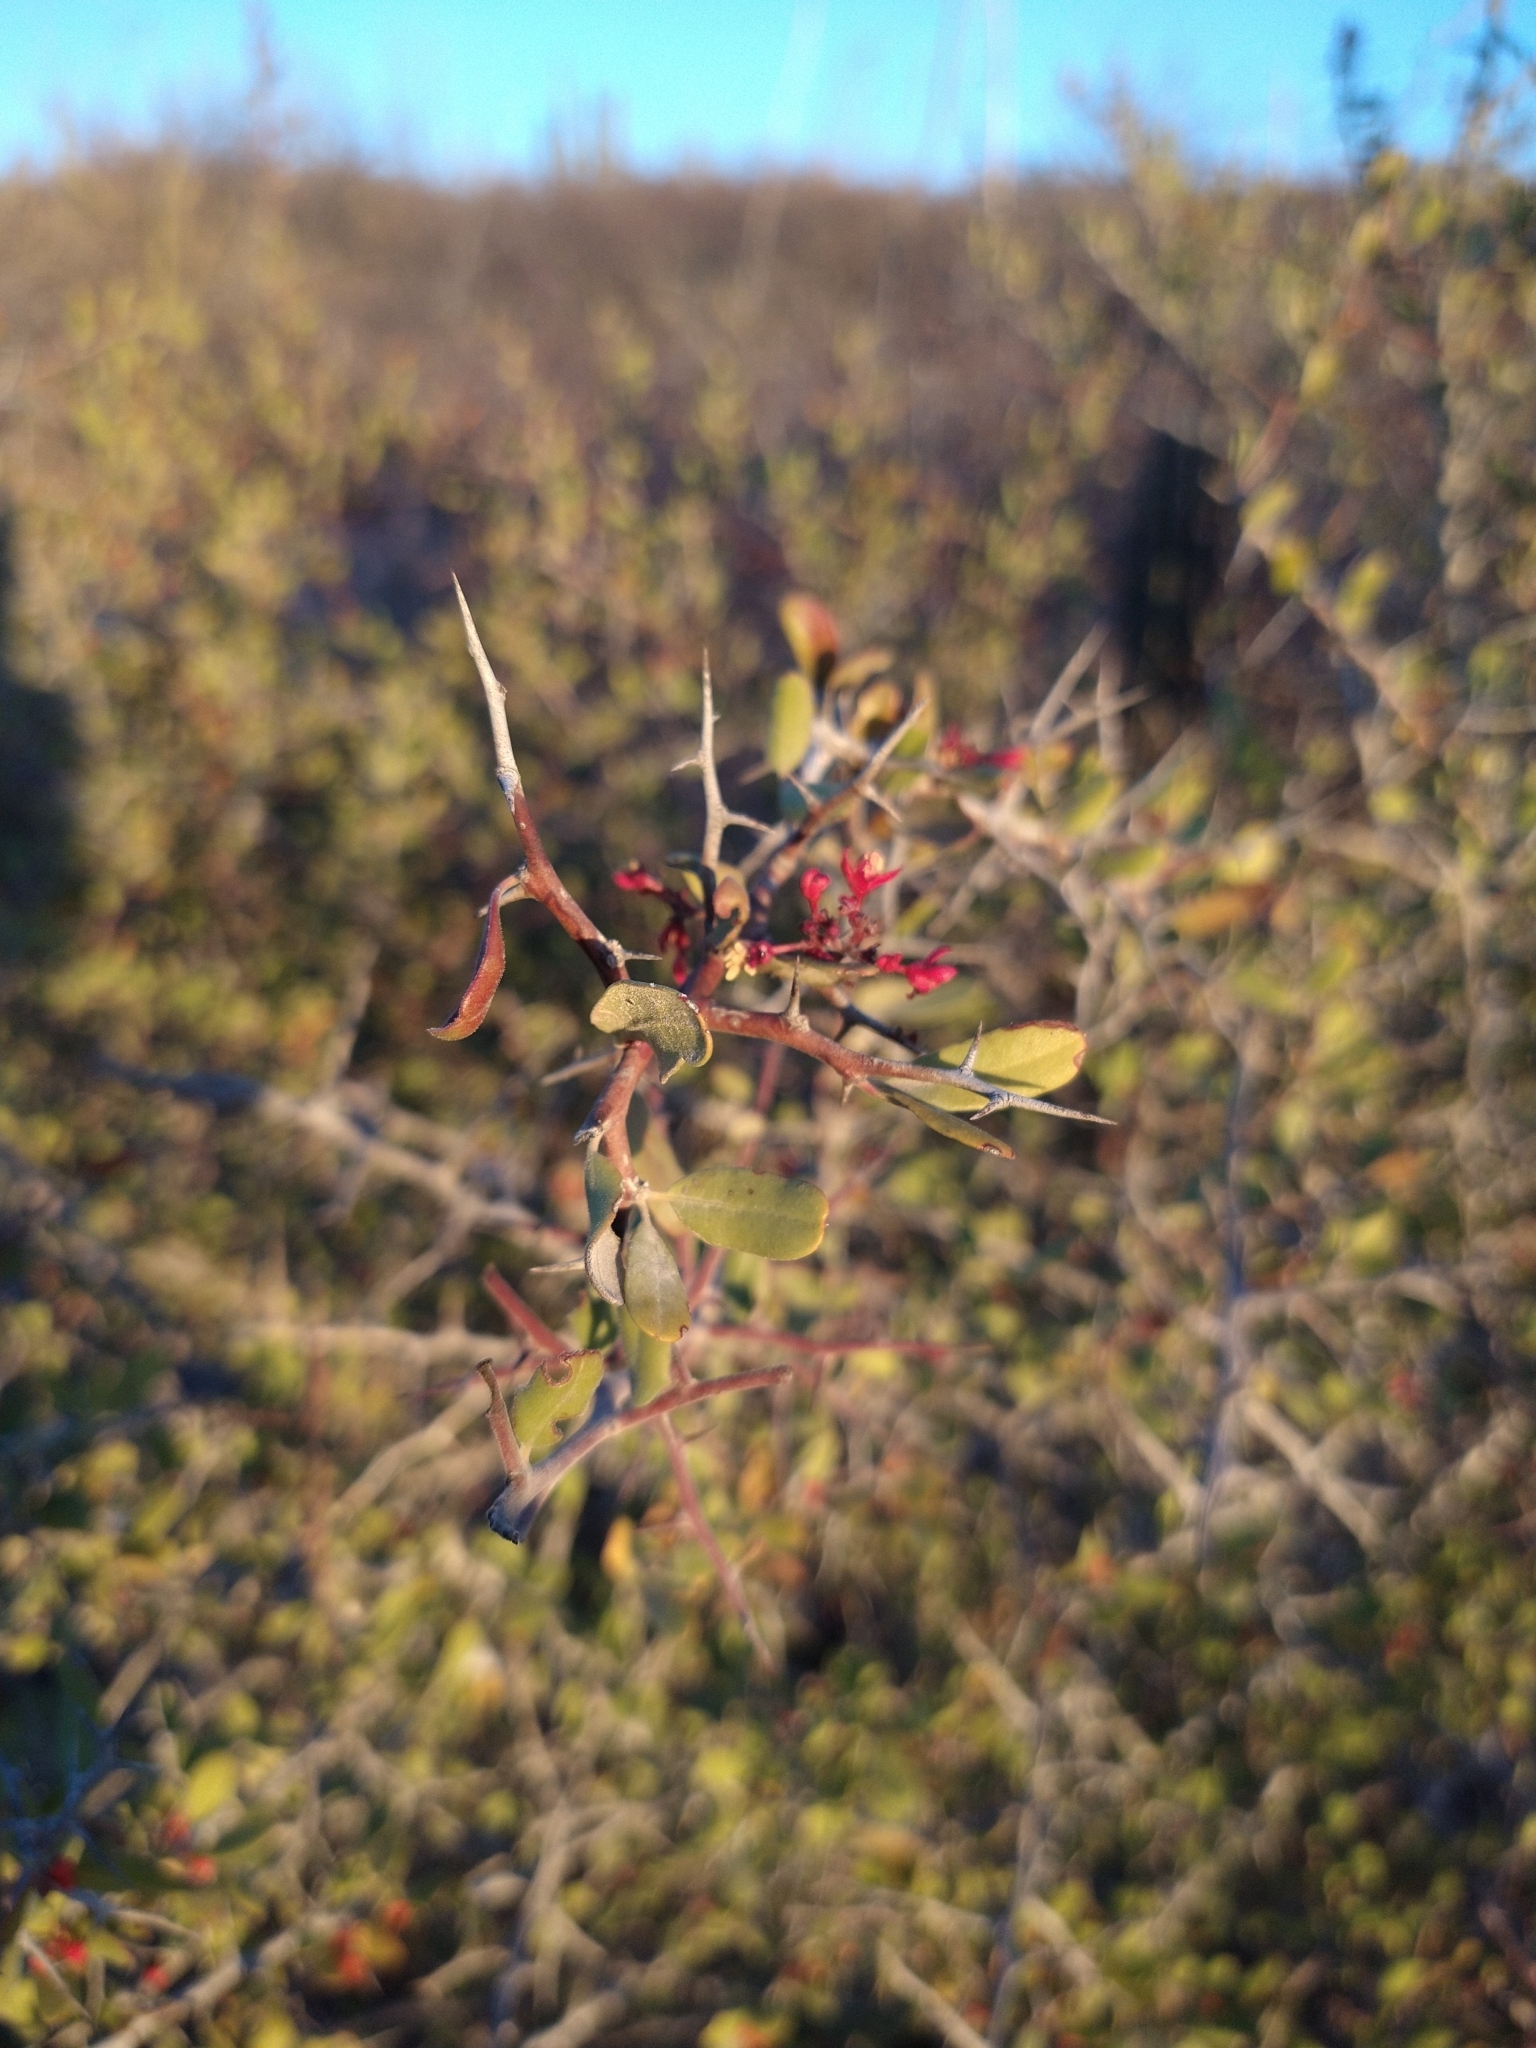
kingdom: Plantae
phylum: Tracheophyta
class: Magnoliopsida
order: Sapindales
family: Simaroubaceae
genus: Castela
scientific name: Castela peninsularis
